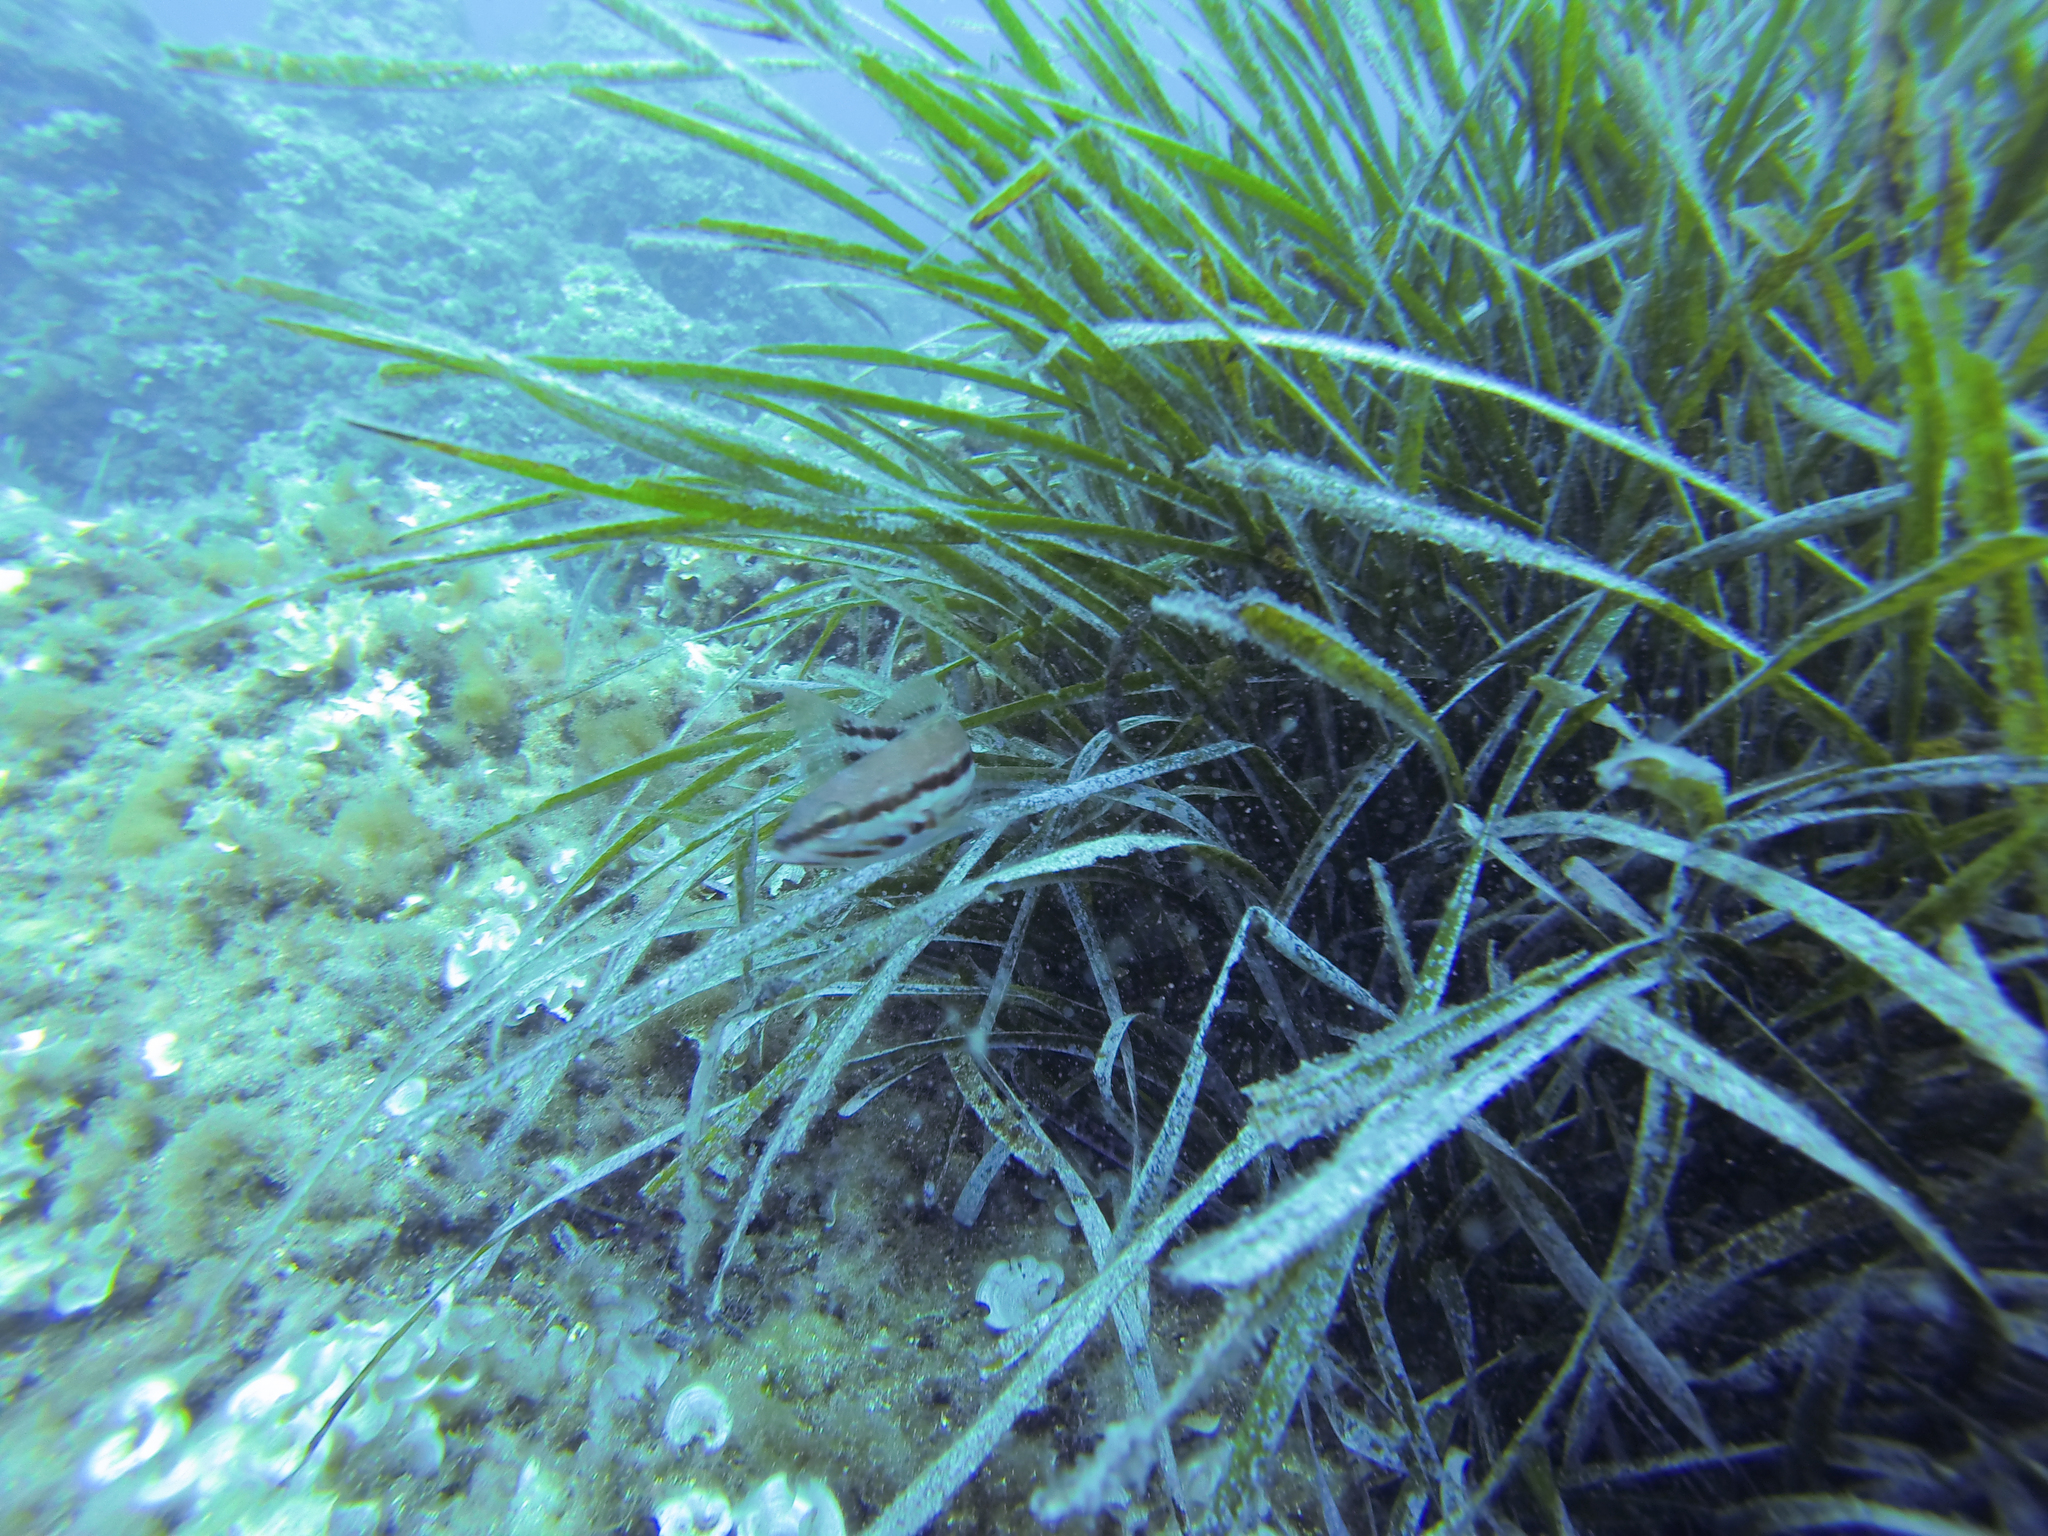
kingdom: Animalia
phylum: Chordata
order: Perciformes
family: Serranidae
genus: Serranus
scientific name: Serranus cabrilla
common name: Comber
